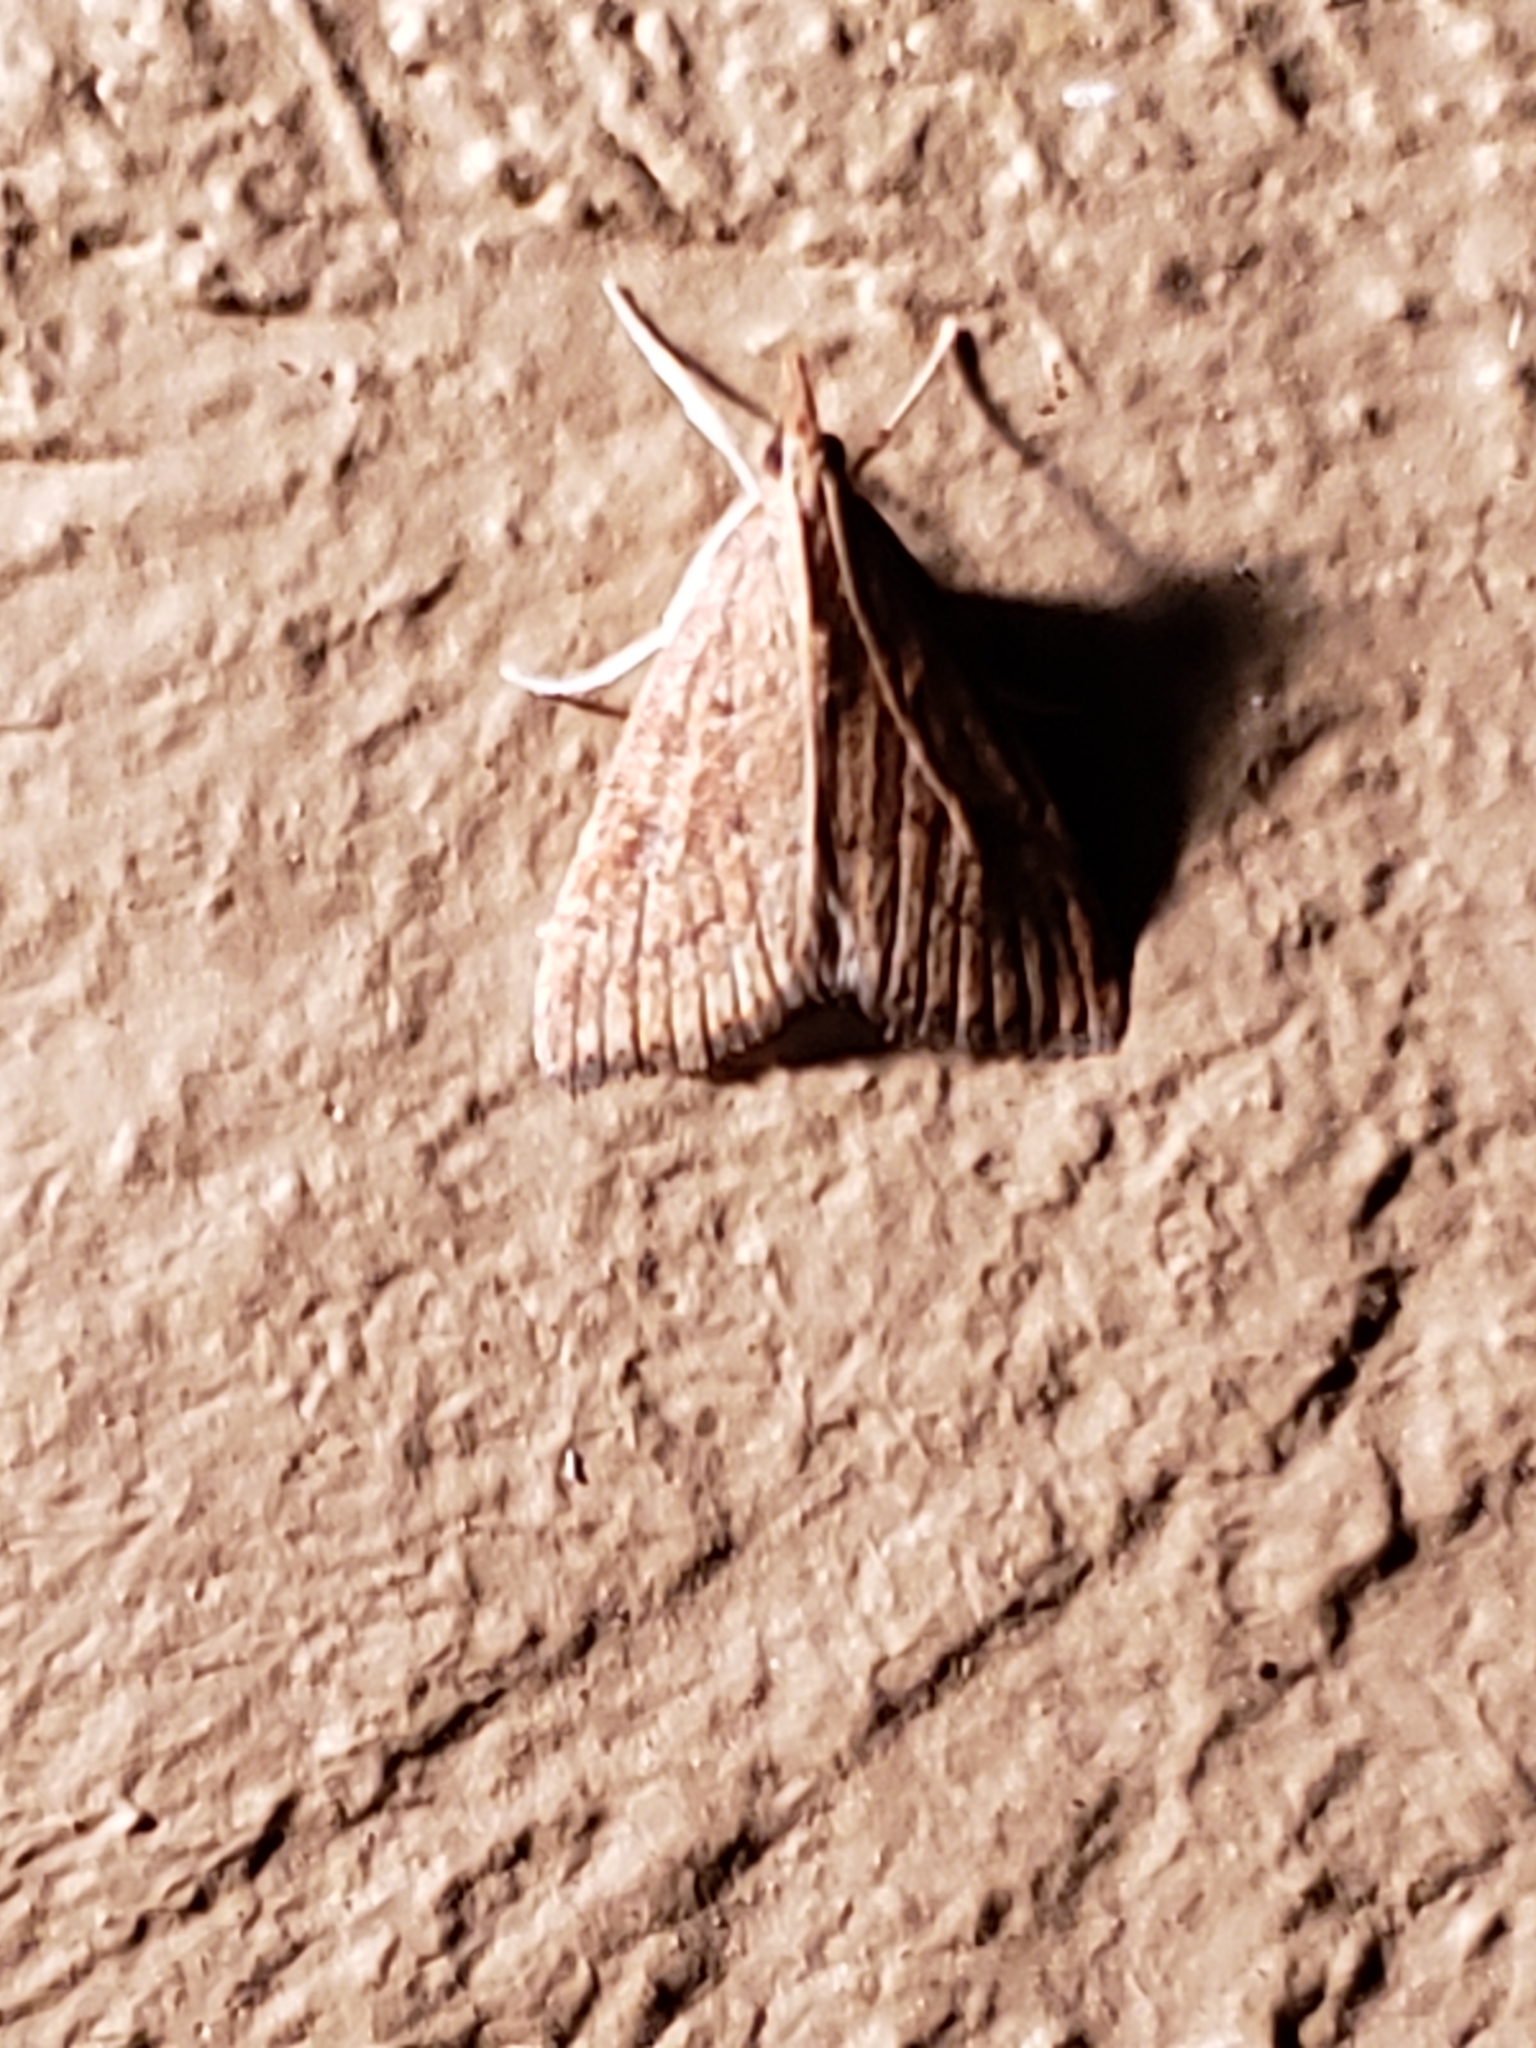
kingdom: Animalia
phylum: Arthropoda
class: Insecta
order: Lepidoptera
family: Crambidae
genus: Udea
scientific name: Udea rubigalis
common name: Celery leaftier moth
